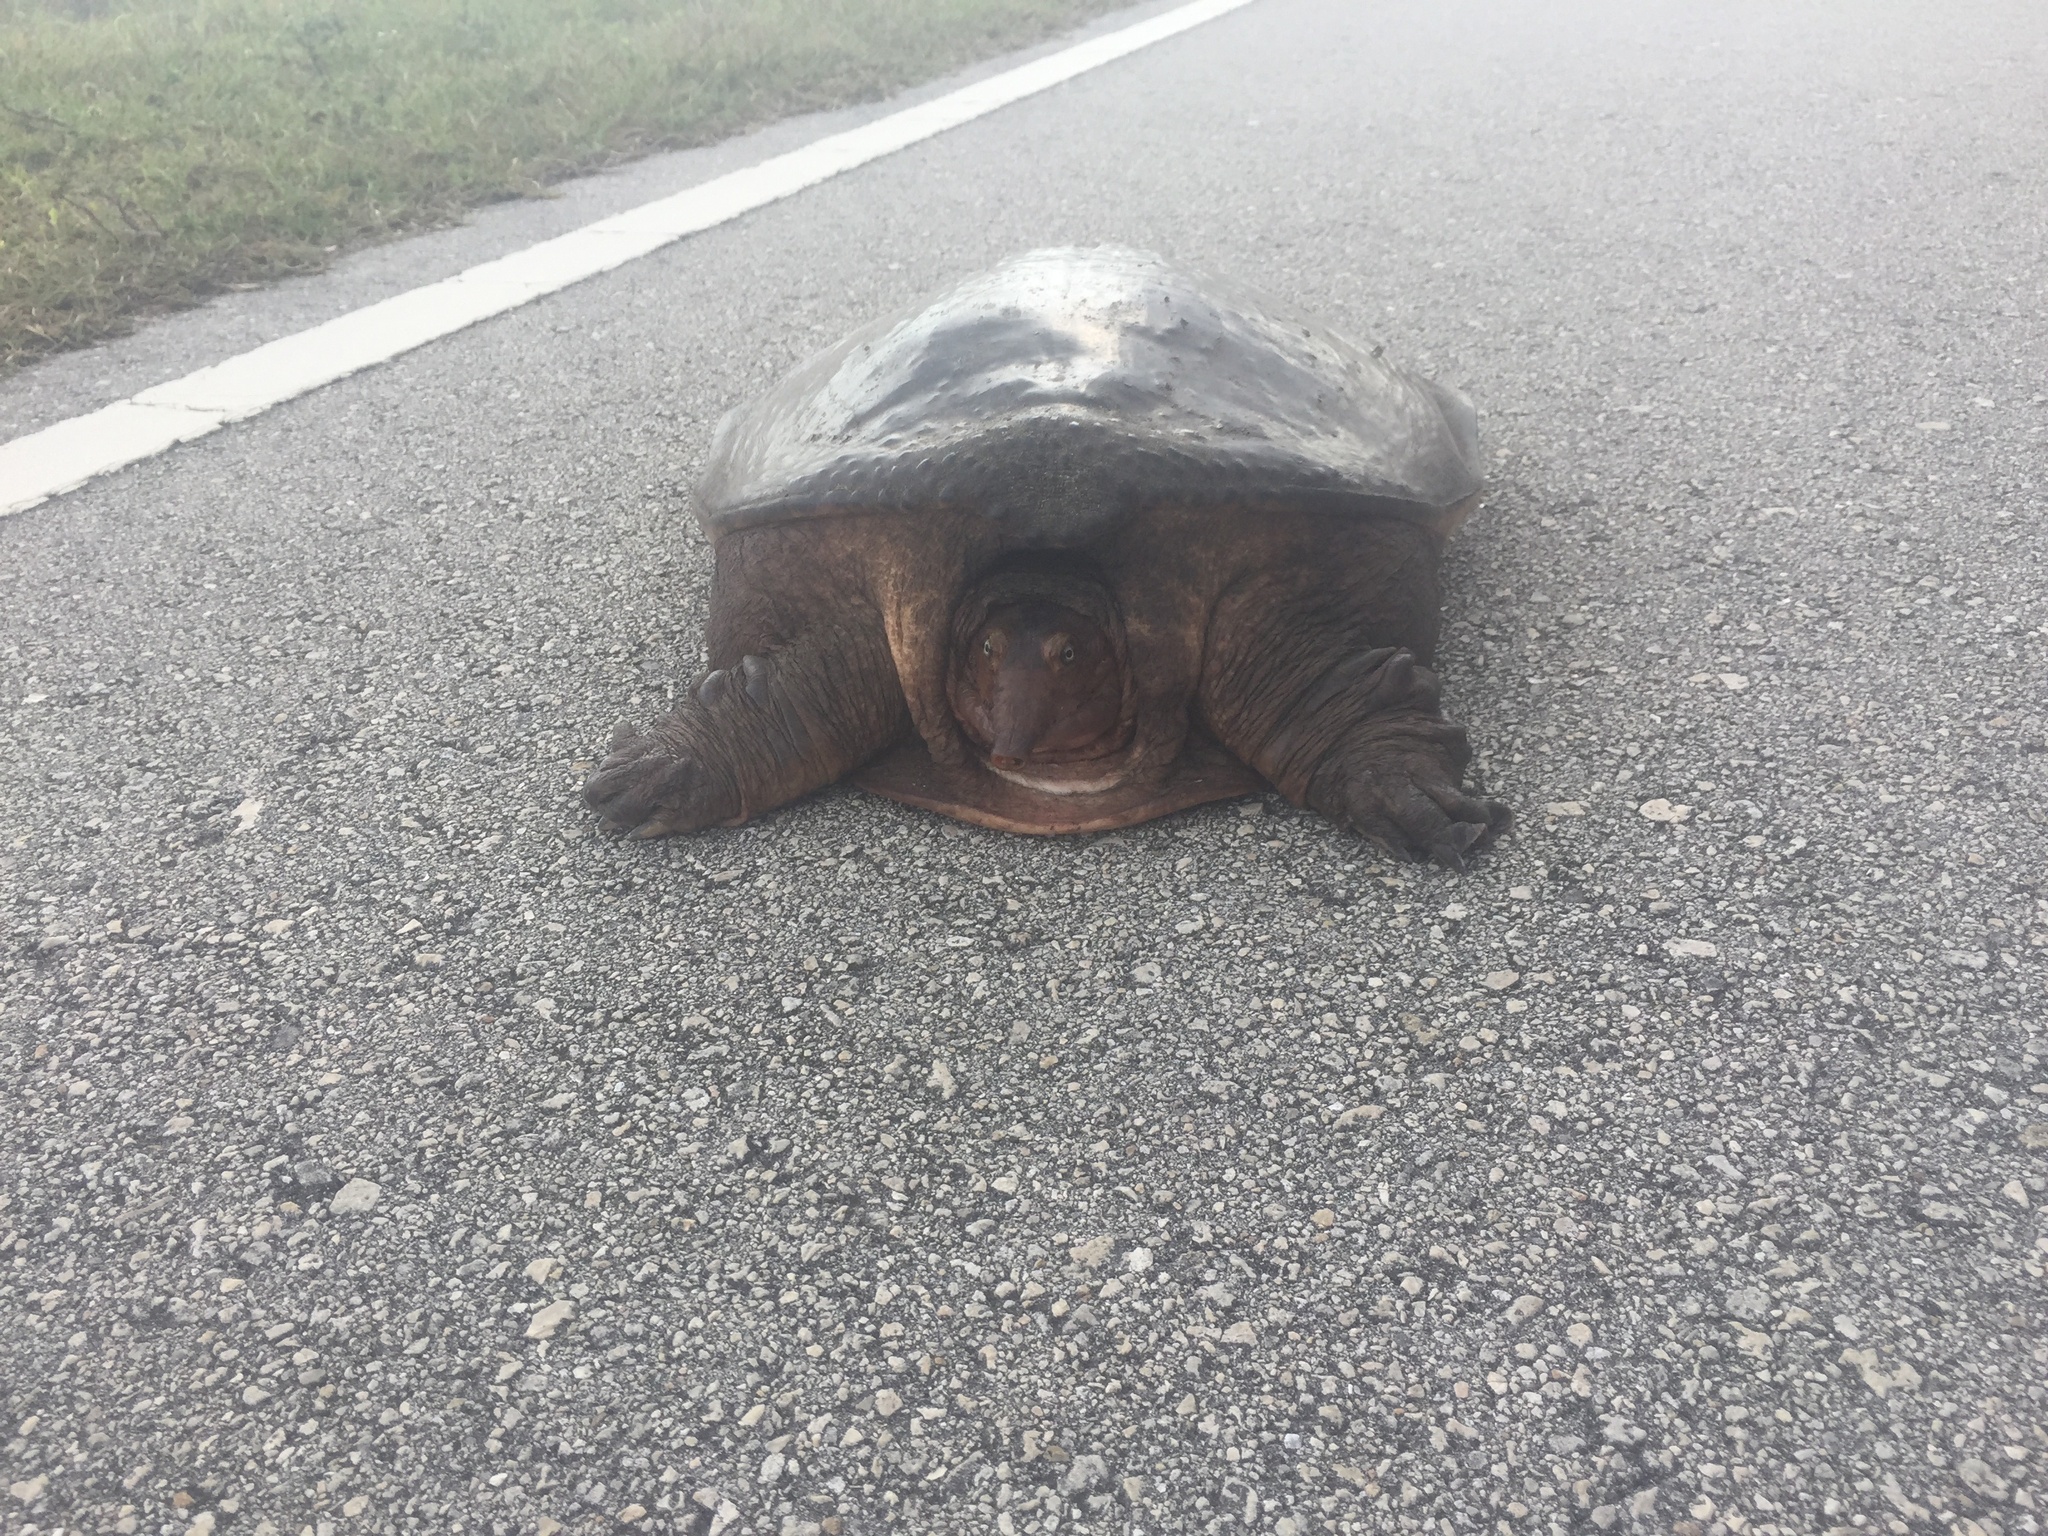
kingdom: Animalia
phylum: Chordata
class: Testudines
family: Trionychidae
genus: Apalone
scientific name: Apalone ferox
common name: Florida softshell turtle
